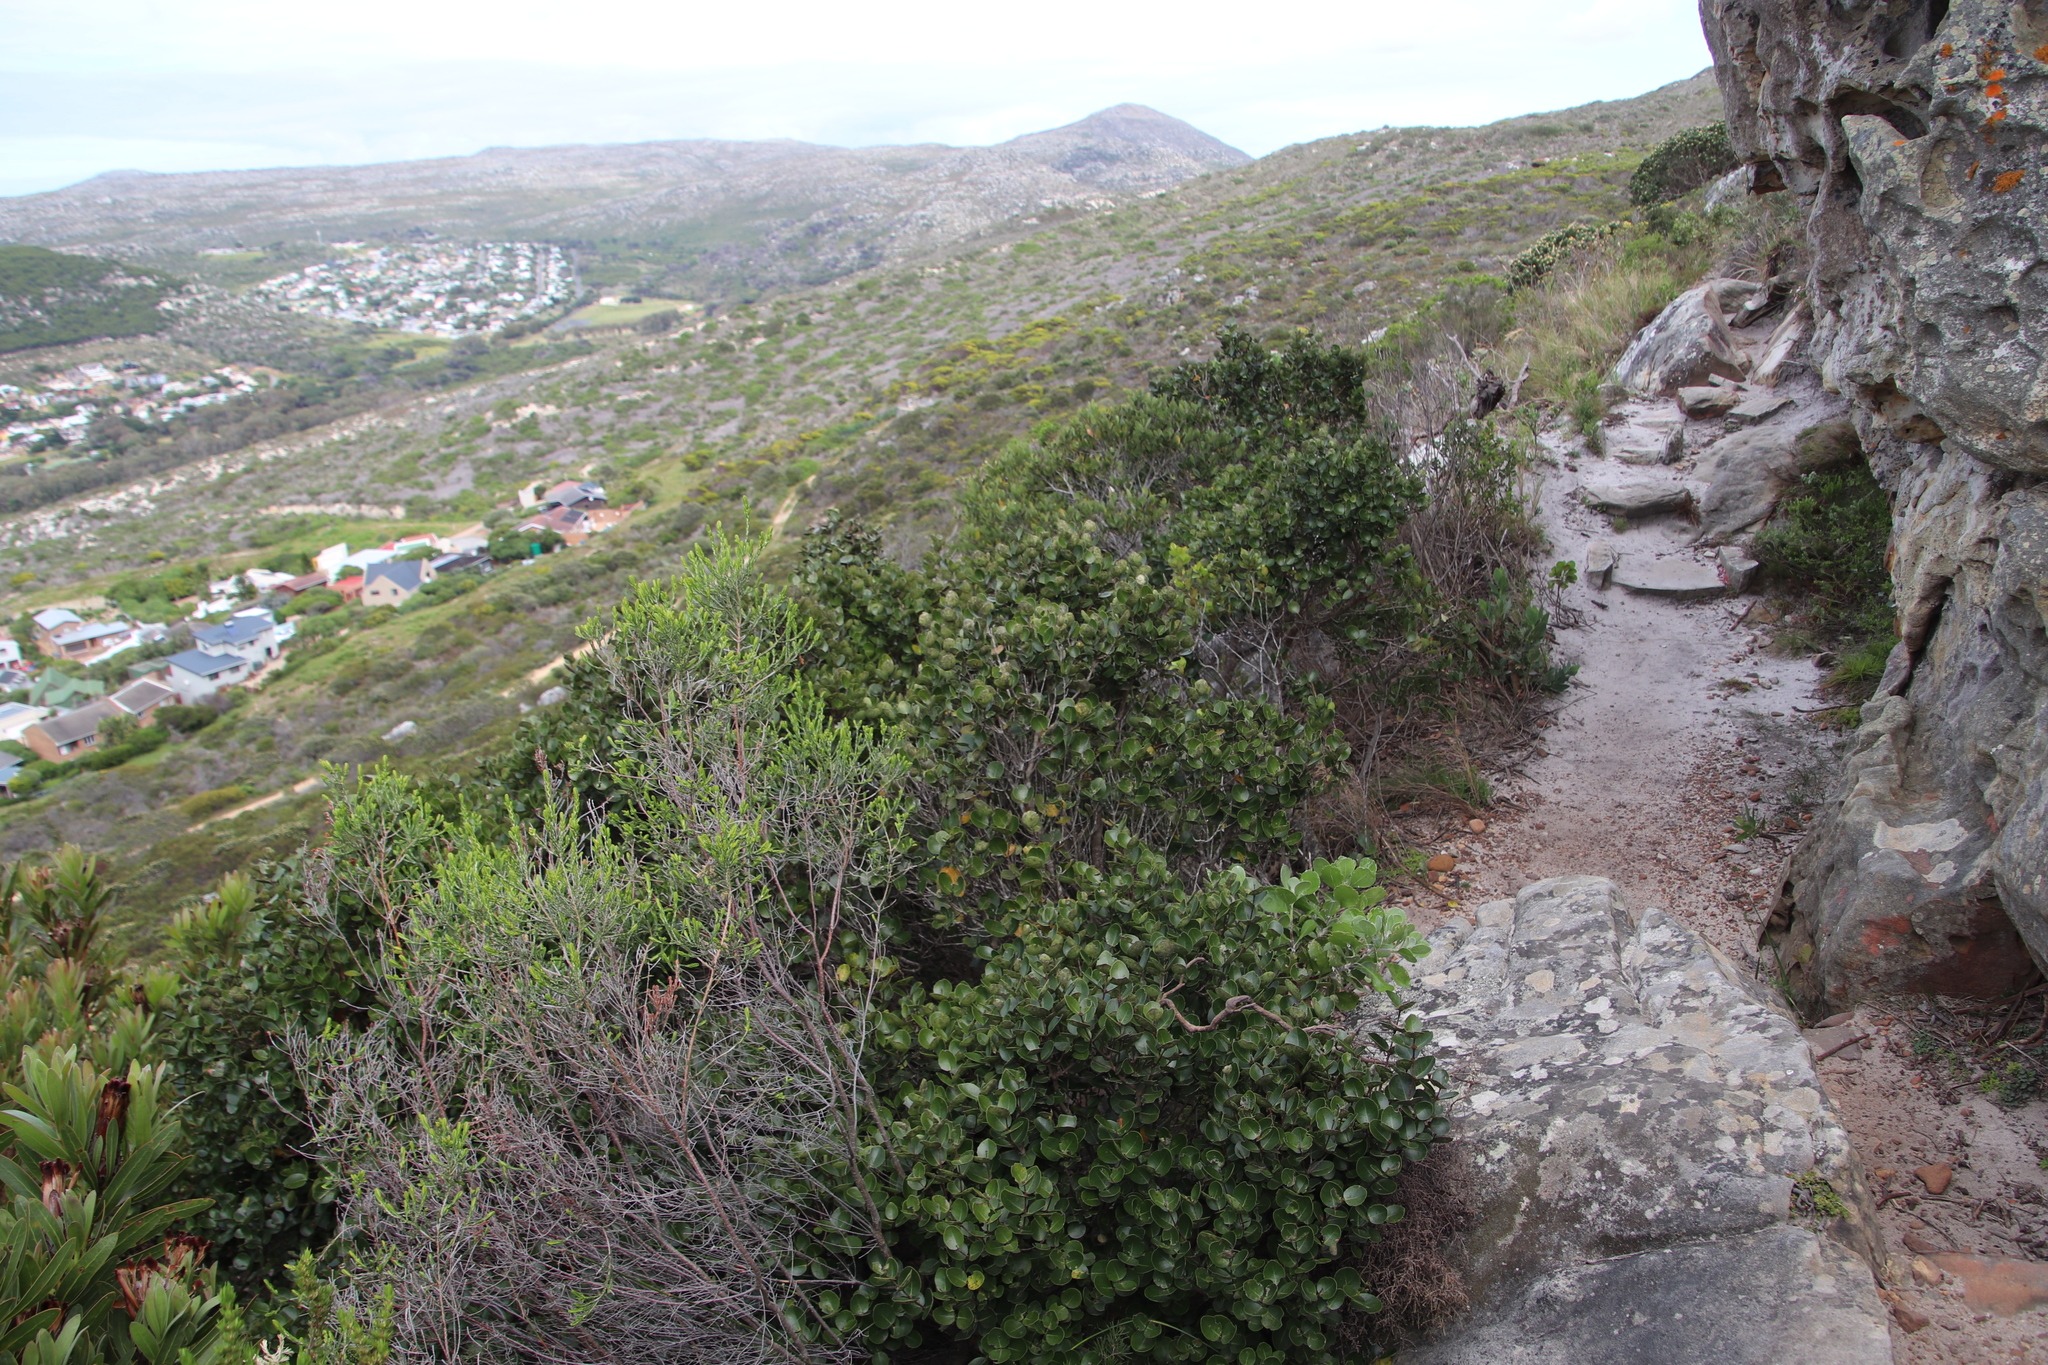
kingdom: Plantae
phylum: Tracheophyta
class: Magnoliopsida
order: Celastrales
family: Celastraceae
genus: Cassine
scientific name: Cassine peragua
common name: Cape saffron
